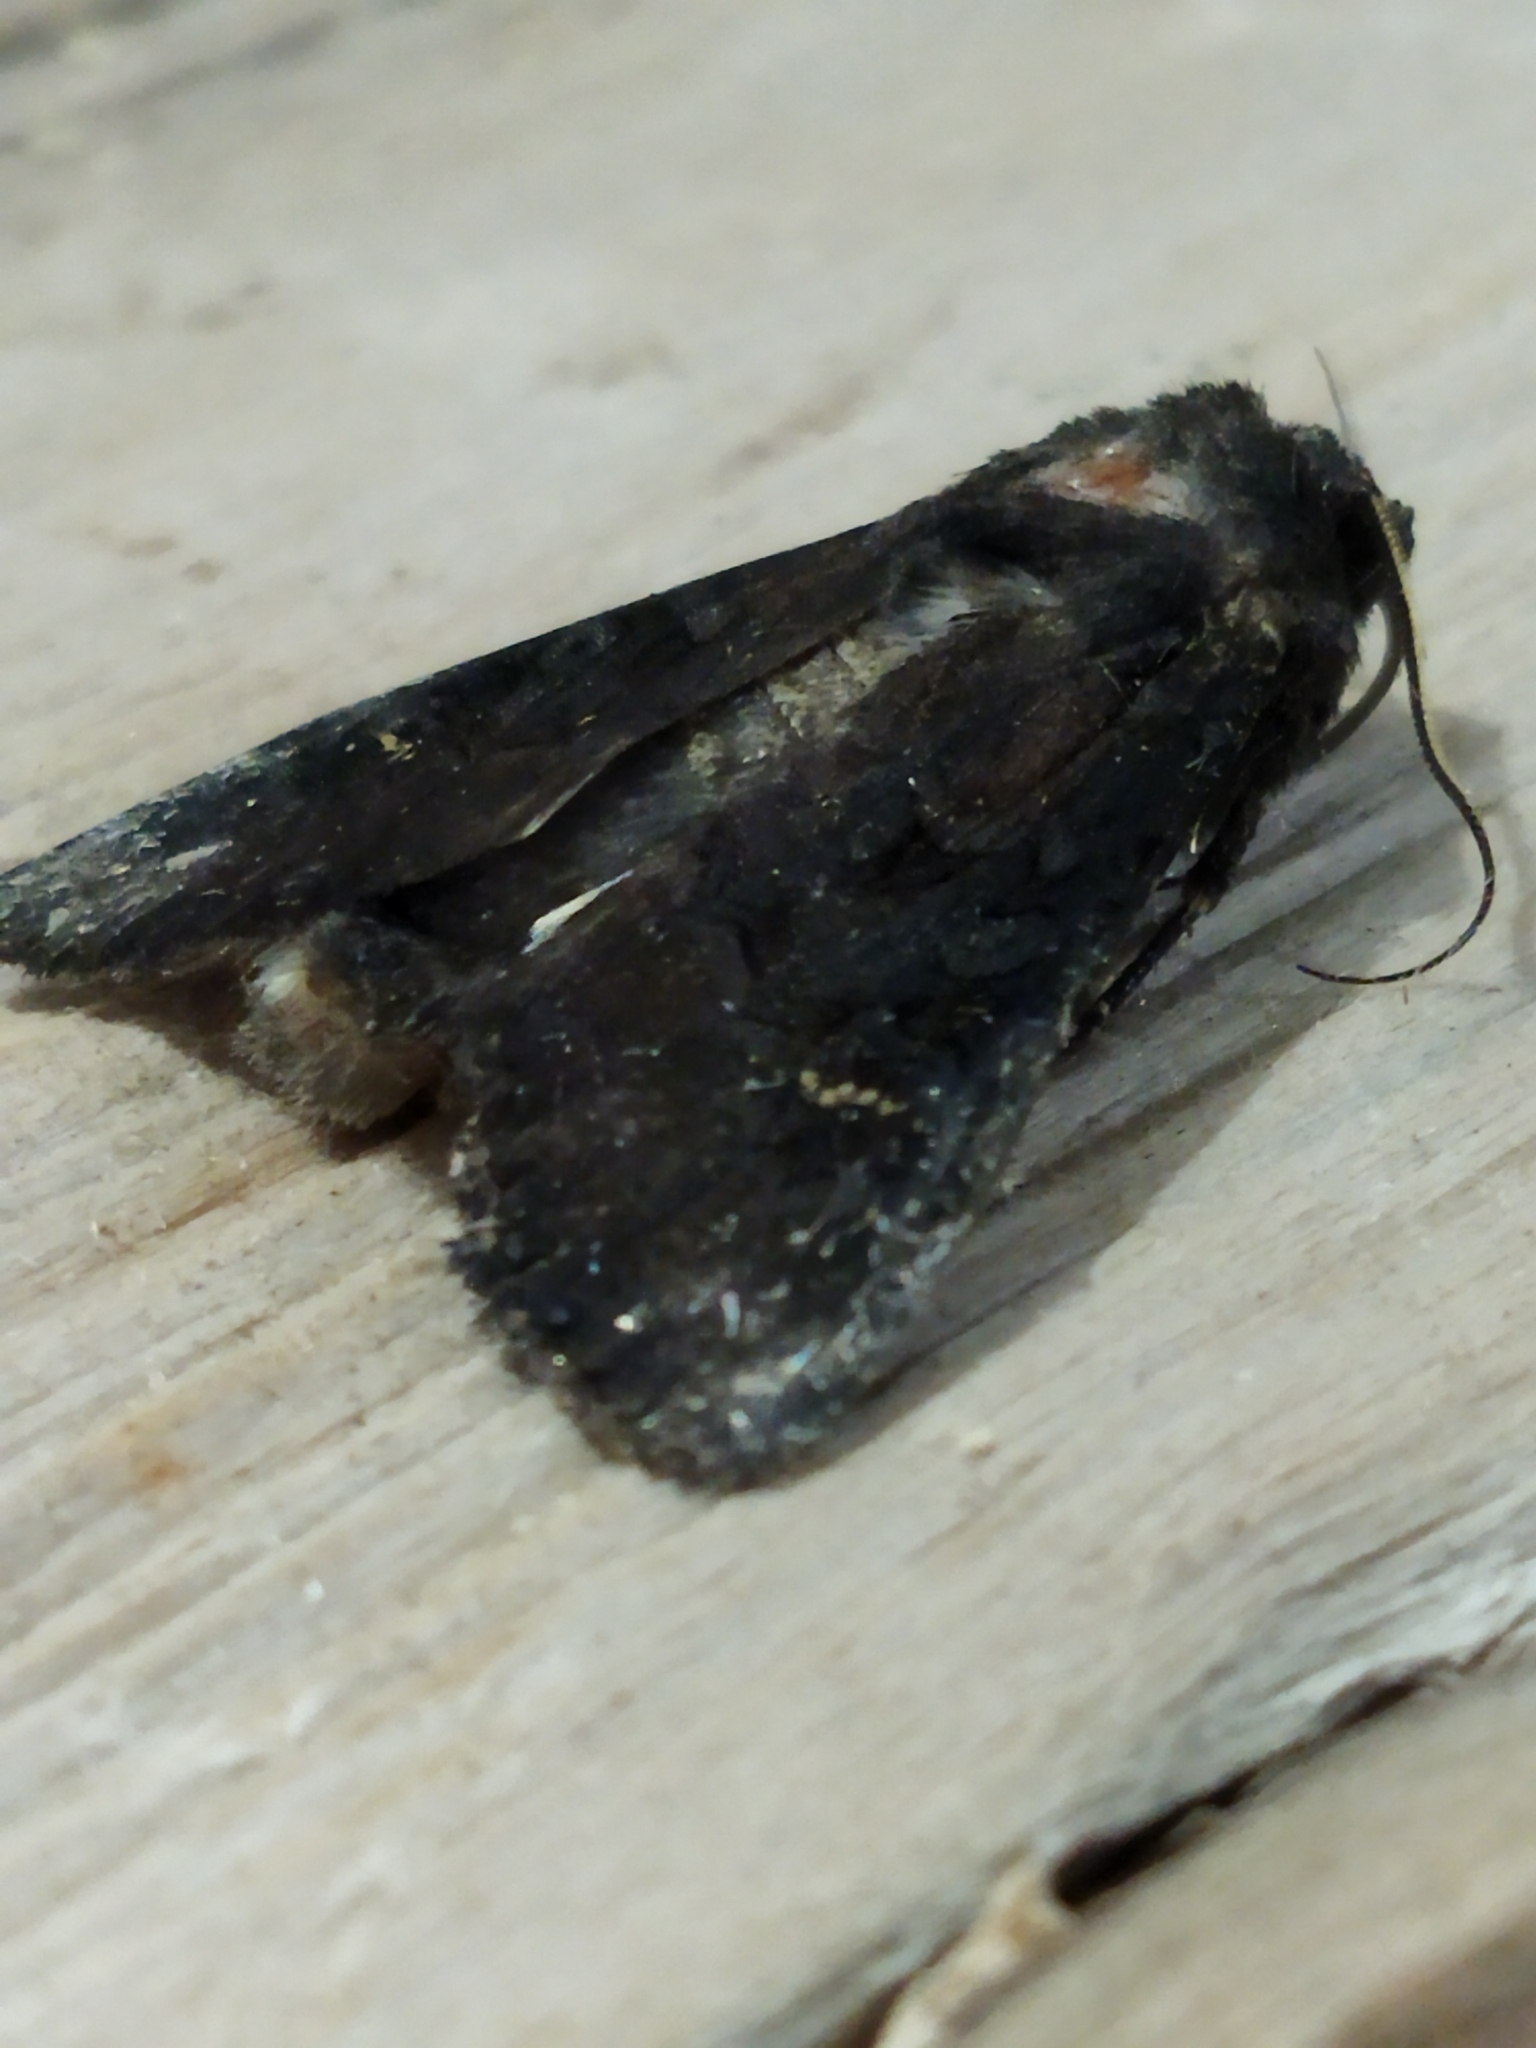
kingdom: Animalia
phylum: Arthropoda
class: Insecta
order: Lepidoptera
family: Noctuidae
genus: Aporophyla
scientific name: Aporophyla nigra
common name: Black rustic
